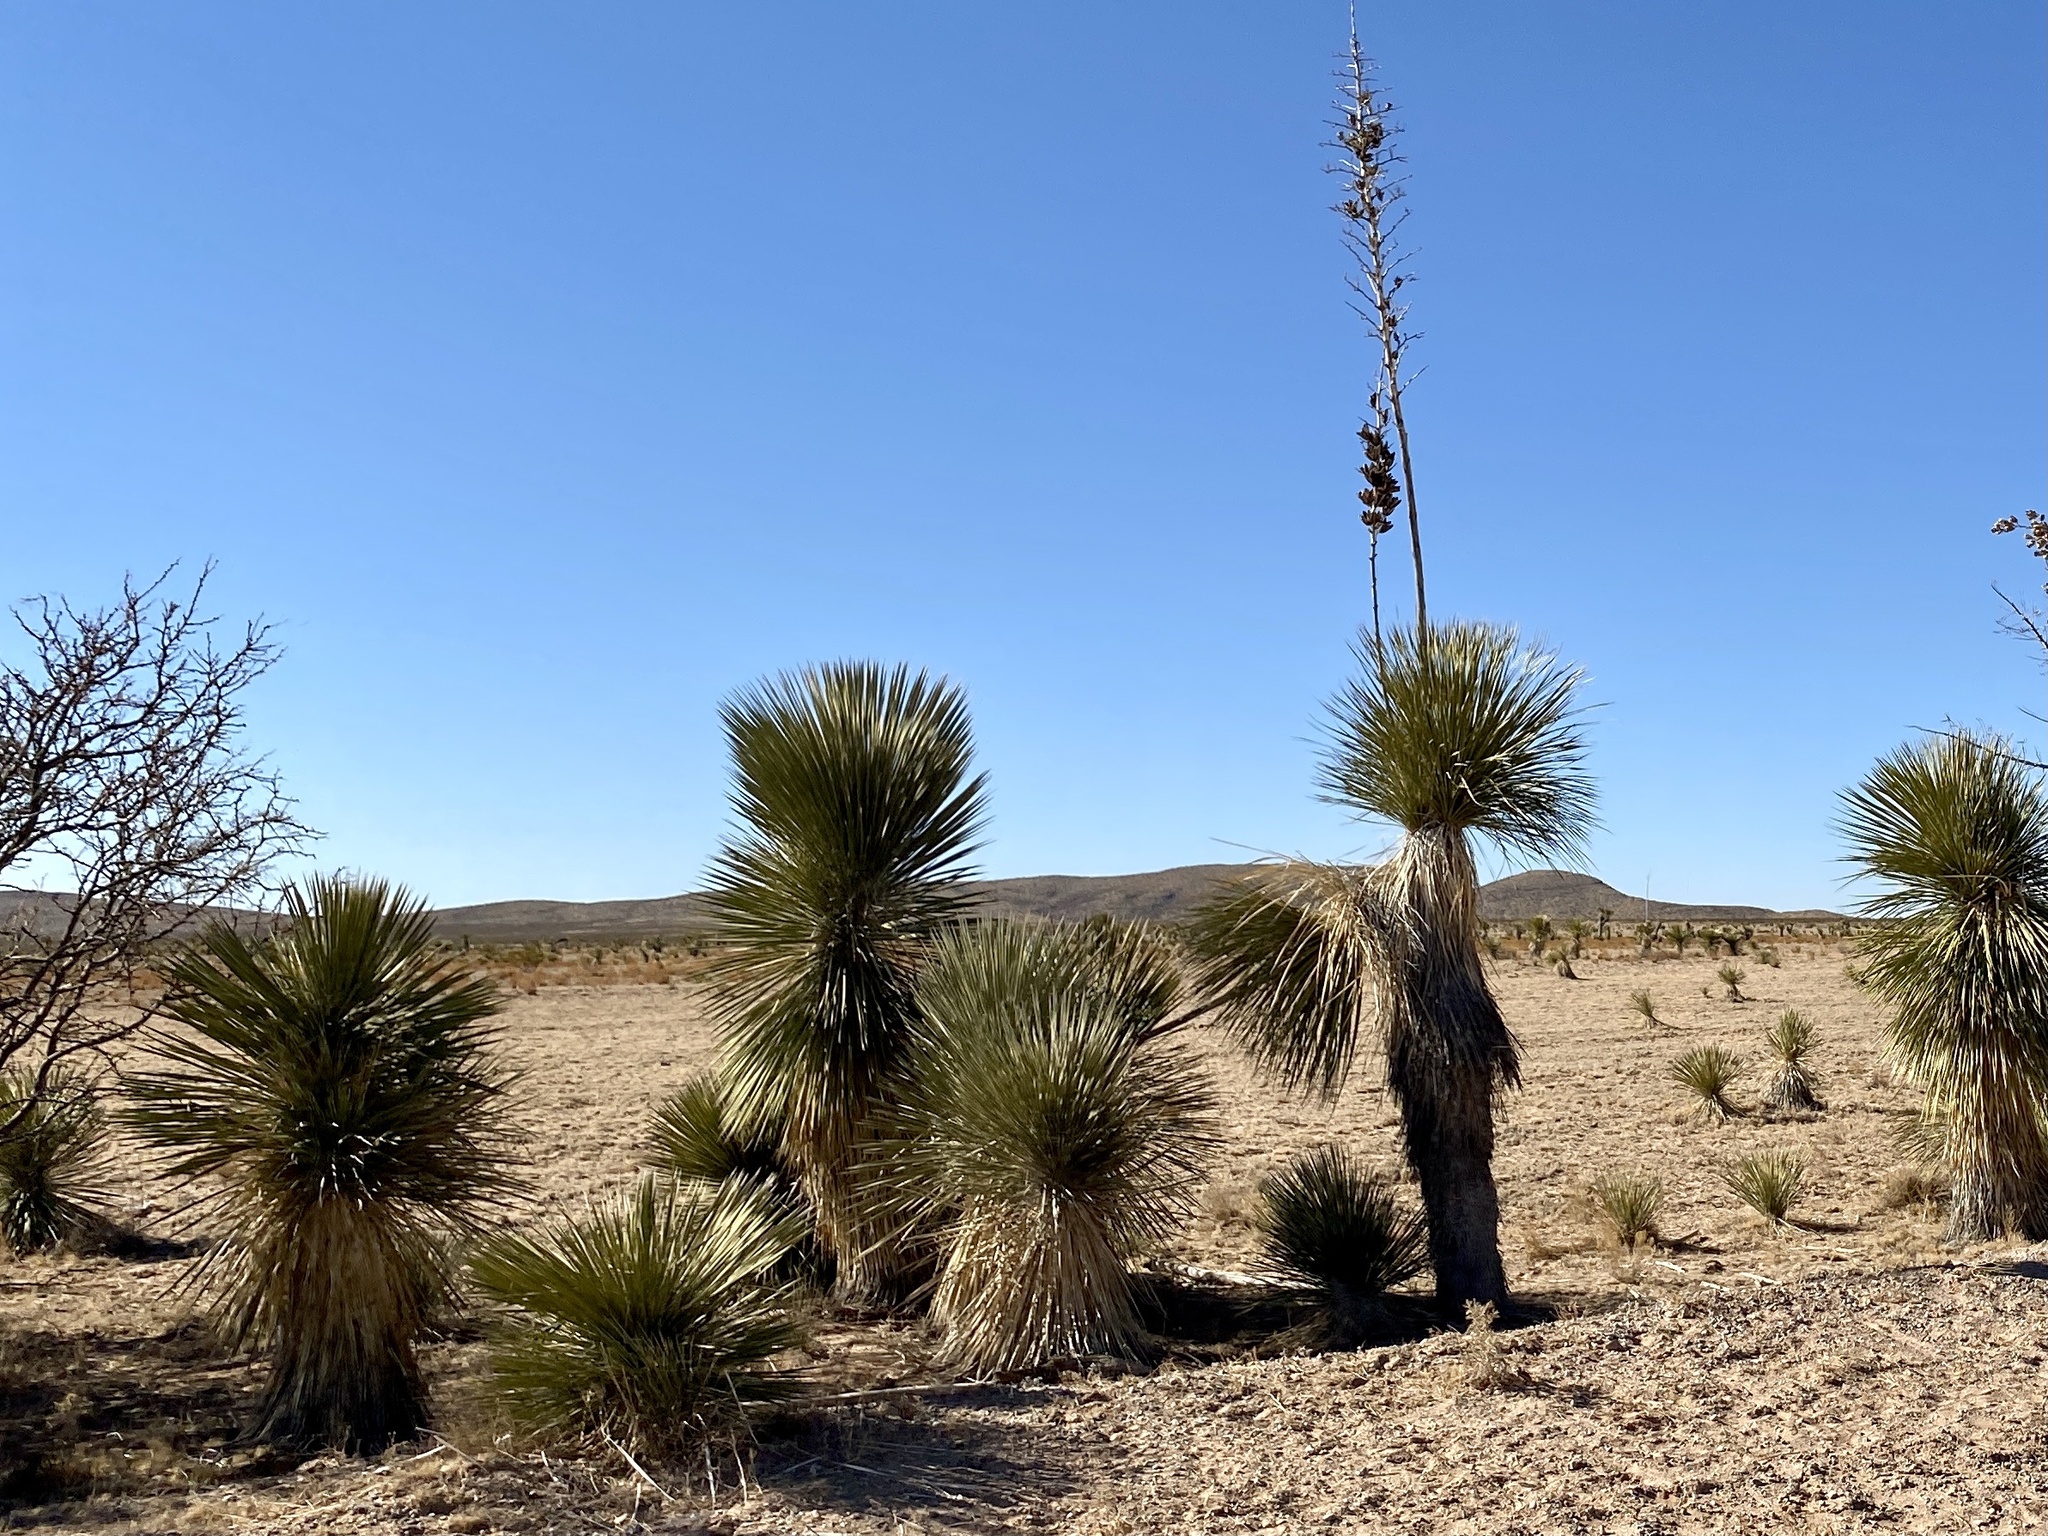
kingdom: Plantae
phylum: Tracheophyta
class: Liliopsida
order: Asparagales
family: Asparagaceae
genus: Yucca
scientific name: Yucca elata
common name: Palmella
